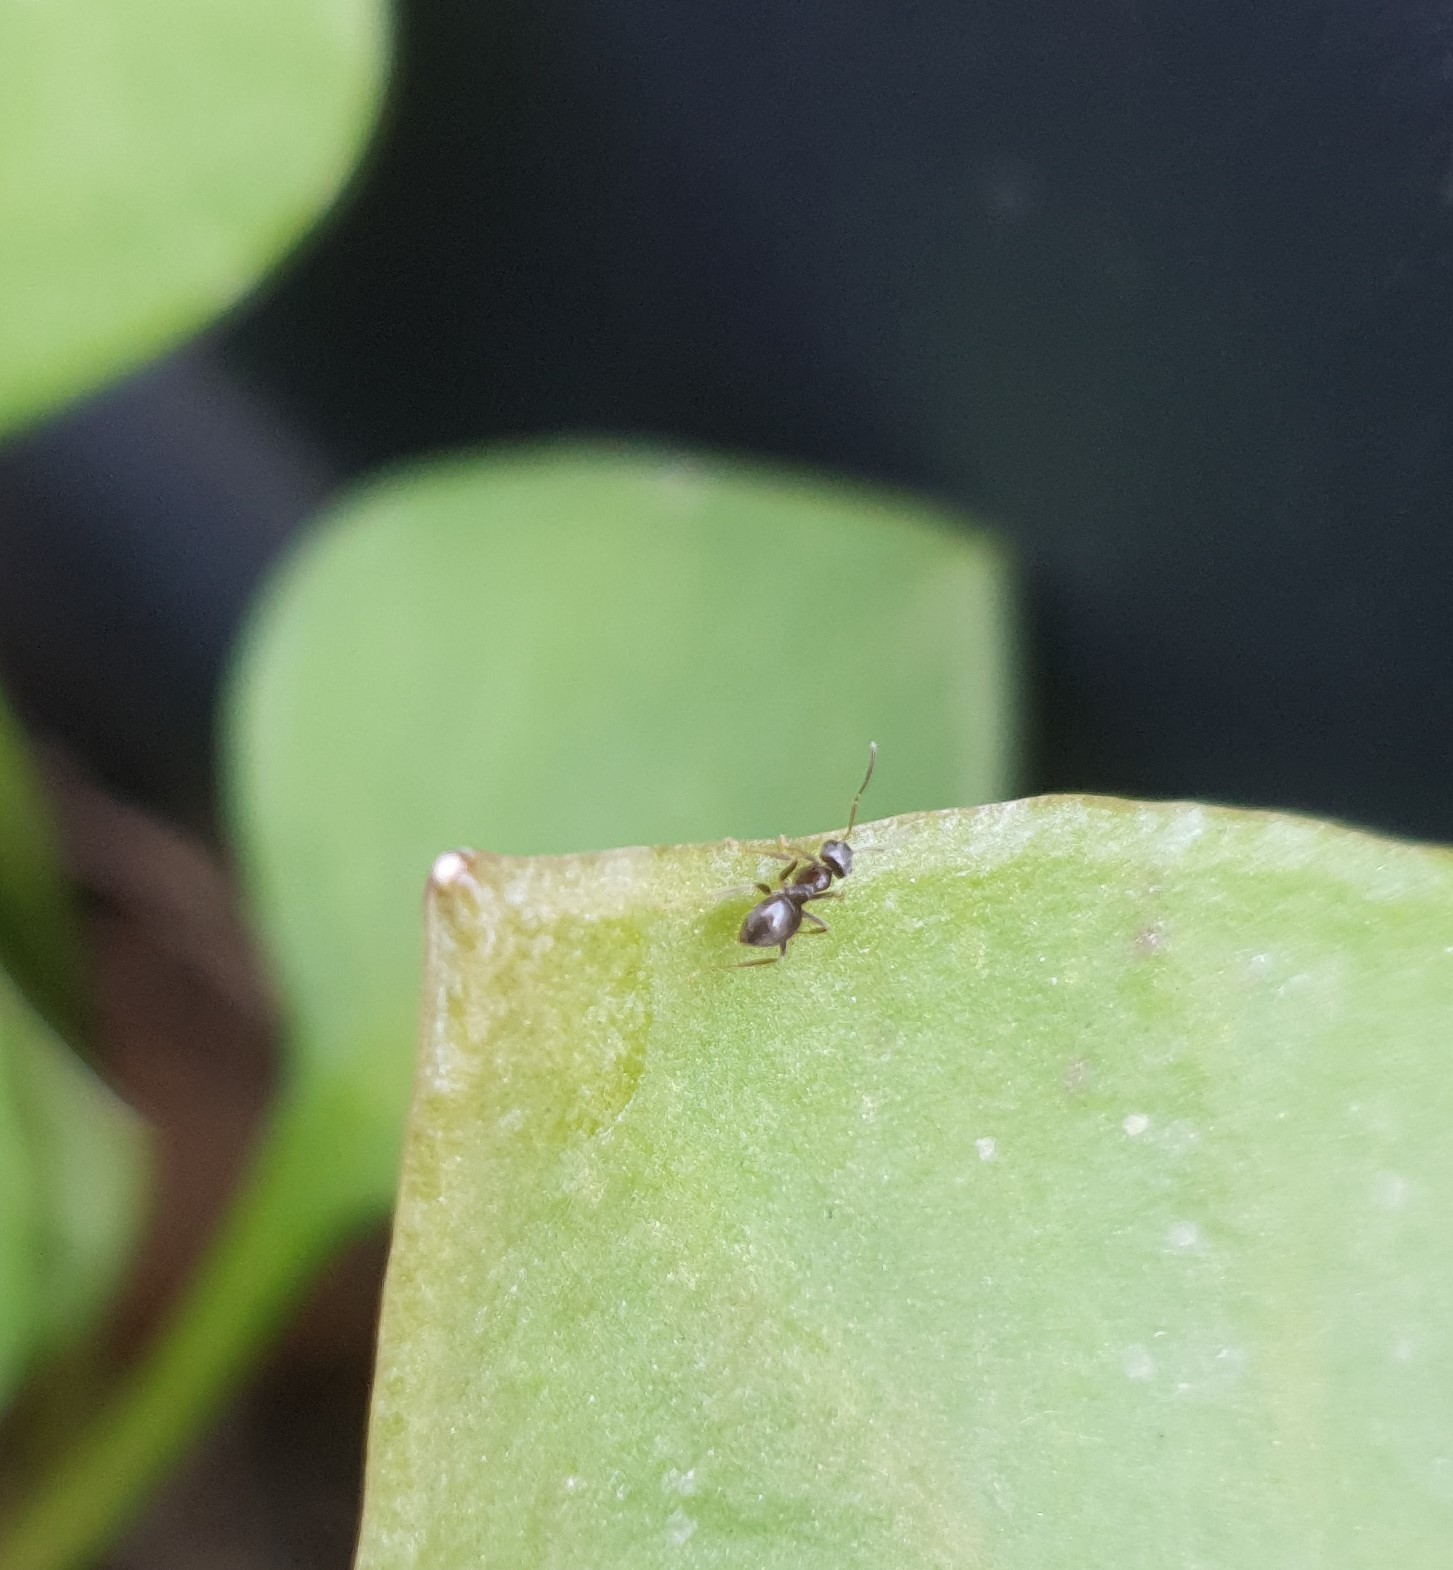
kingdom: Animalia
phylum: Arthropoda
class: Insecta
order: Hymenoptera
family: Formicidae
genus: Lasius
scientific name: Lasius
